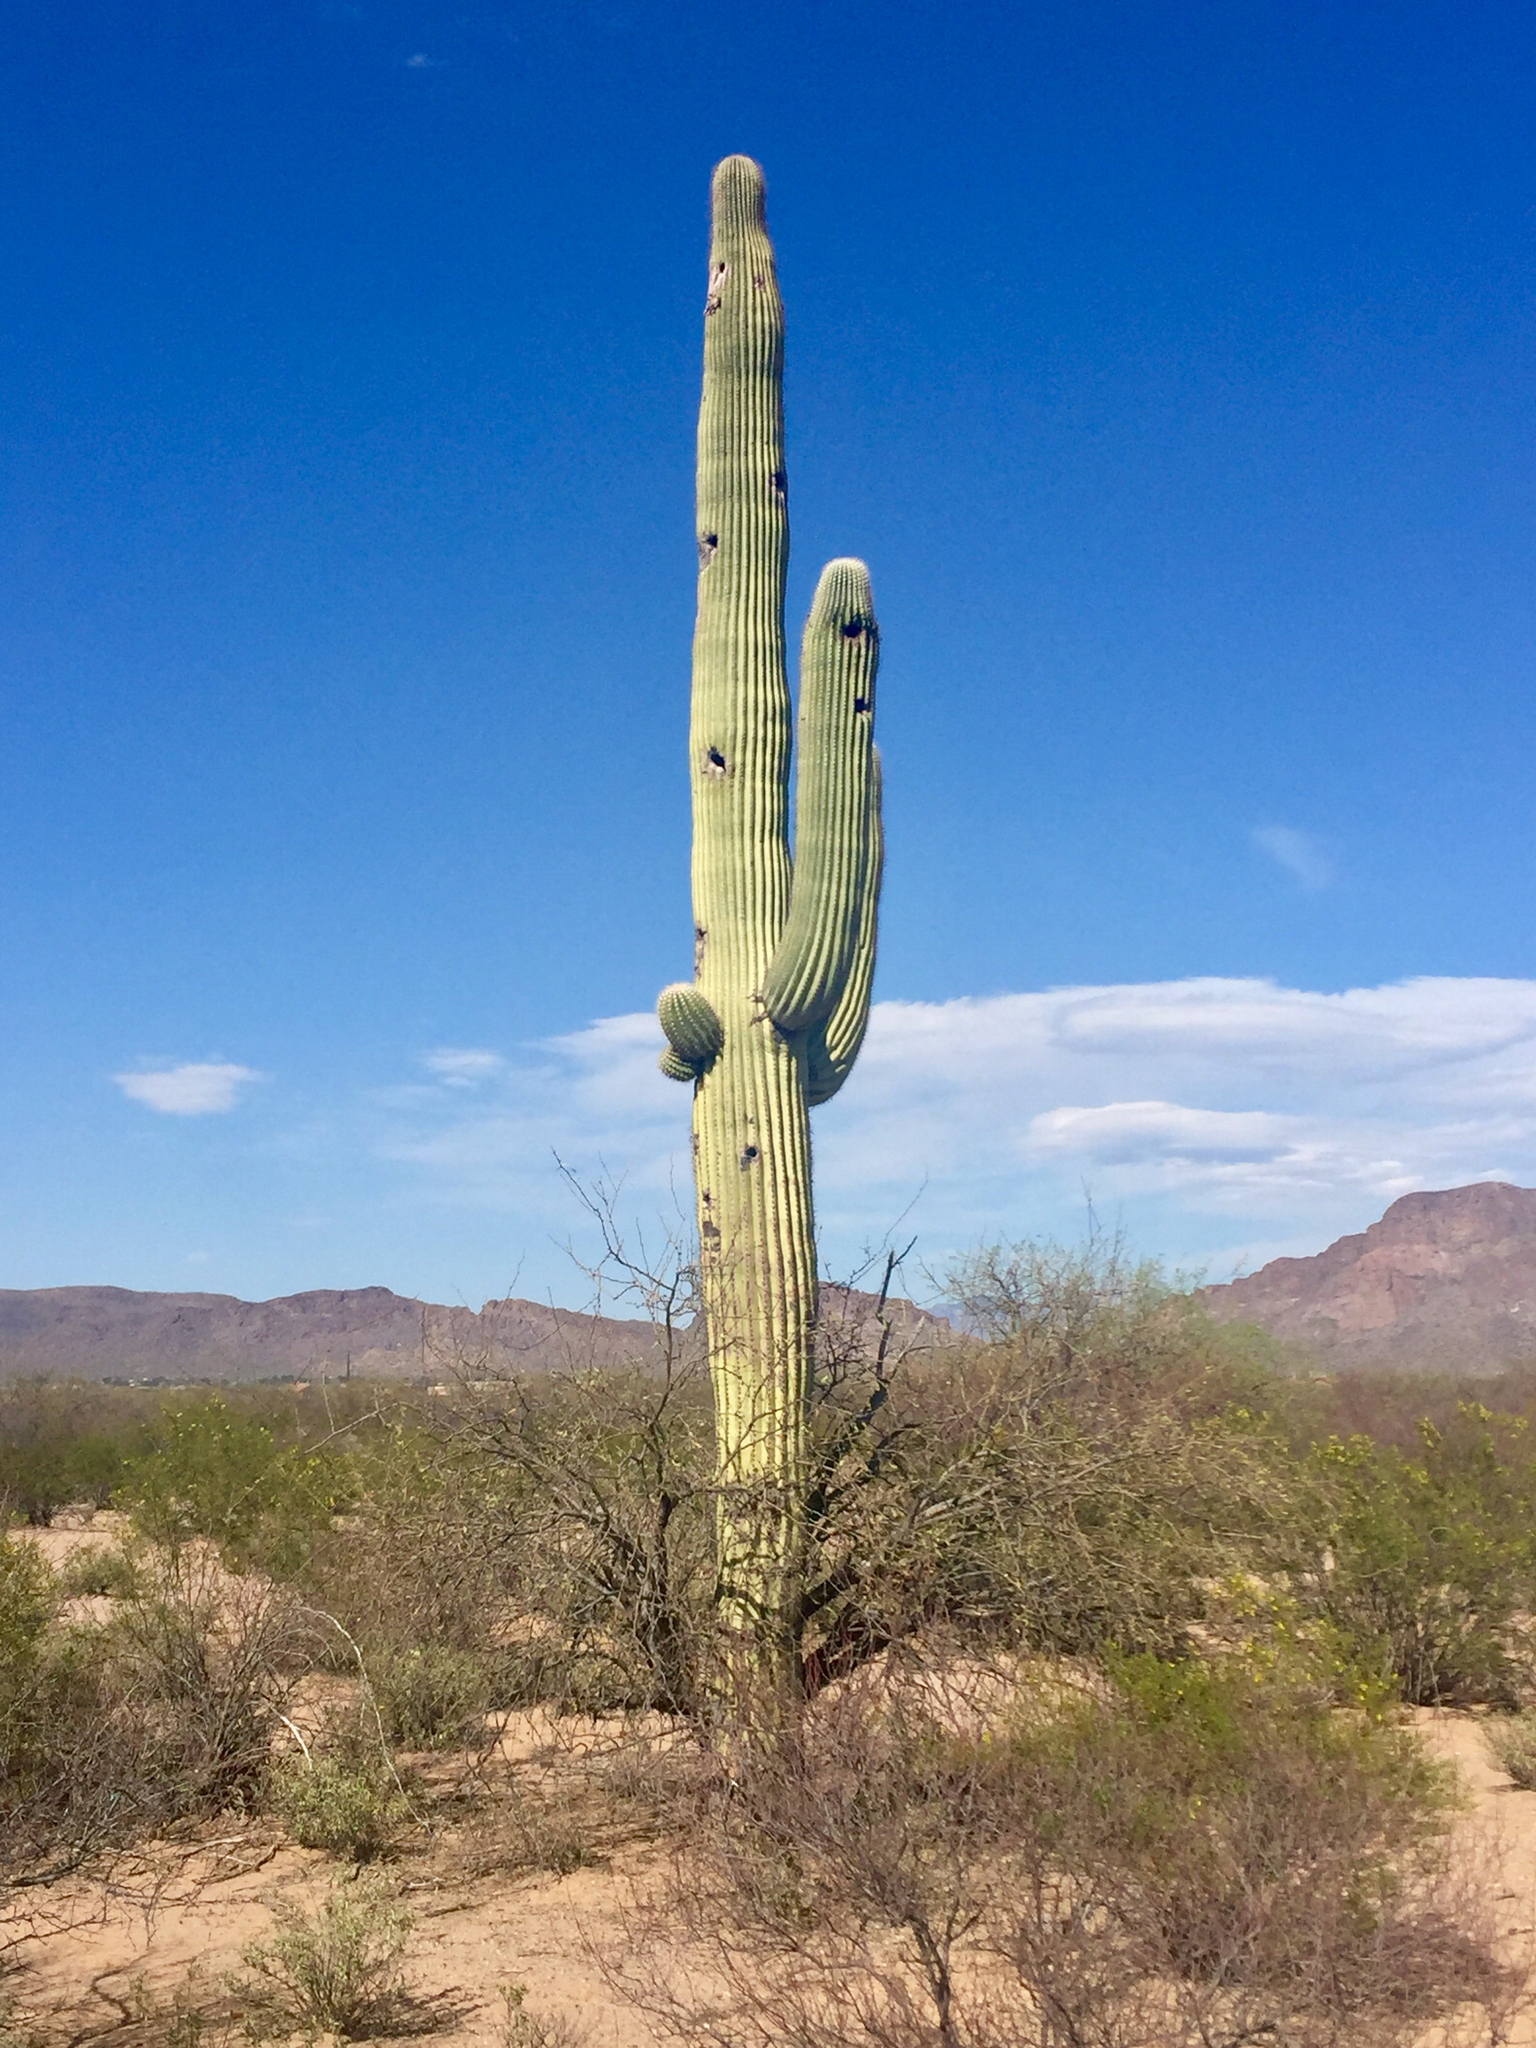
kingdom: Plantae
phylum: Tracheophyta
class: Magnoliopsida
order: Caryophyllales
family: Cactaceae
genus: Carnegiea
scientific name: Carnegiea gigantea
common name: Saguaro
